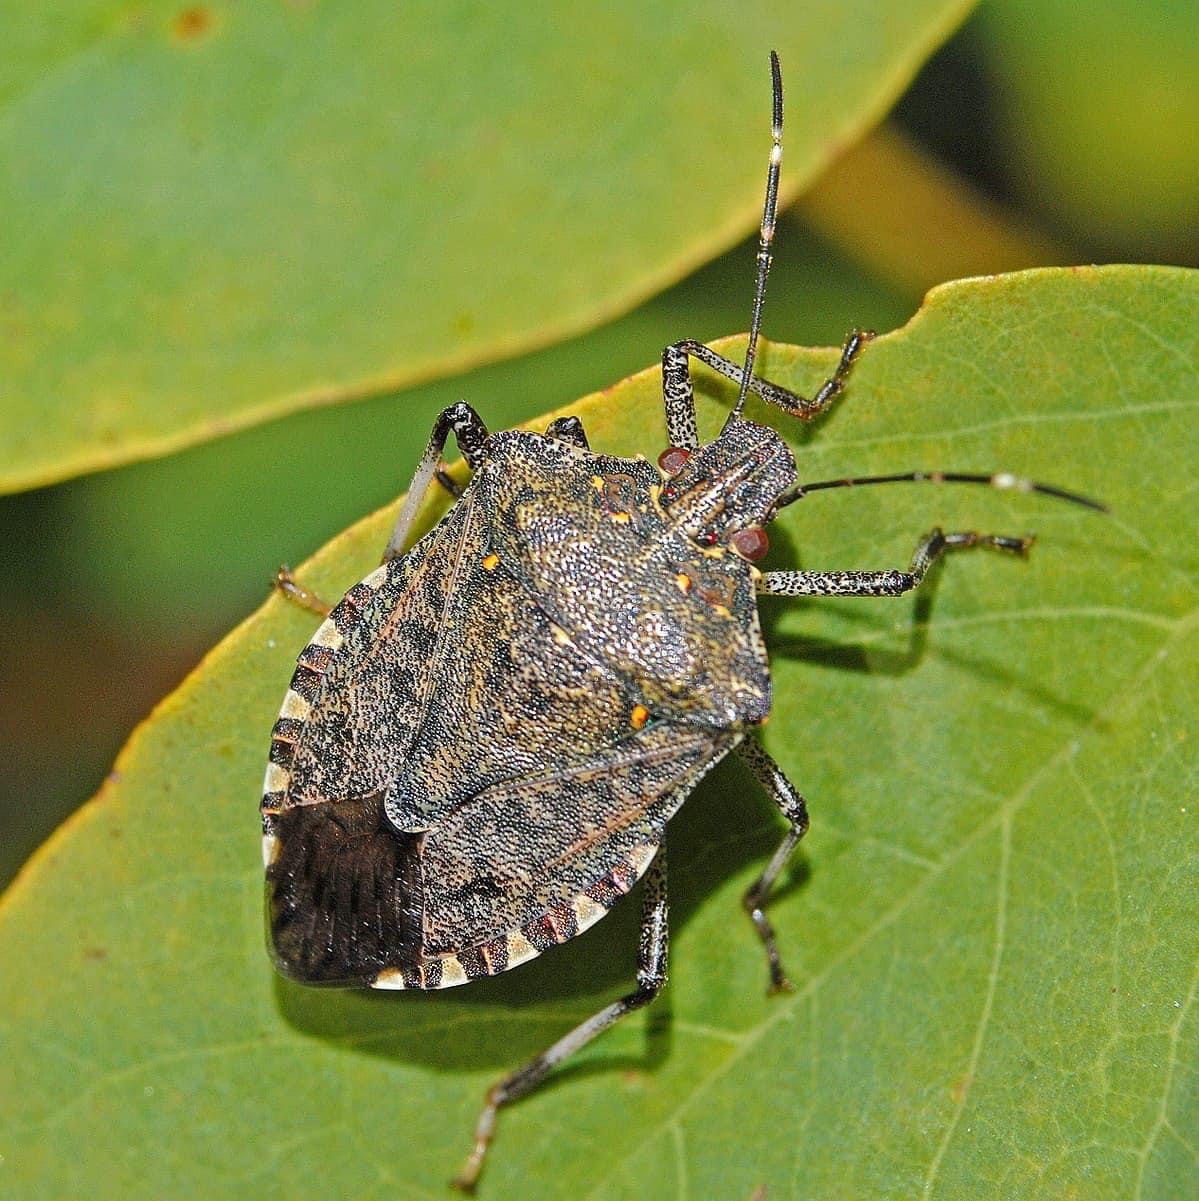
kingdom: Animalia
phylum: Arthropoda
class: Insecta
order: Hemiptera
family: Pentatomidae
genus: Halyomorpha
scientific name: Halyomorpha halys
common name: Brown marmorated stink bug
